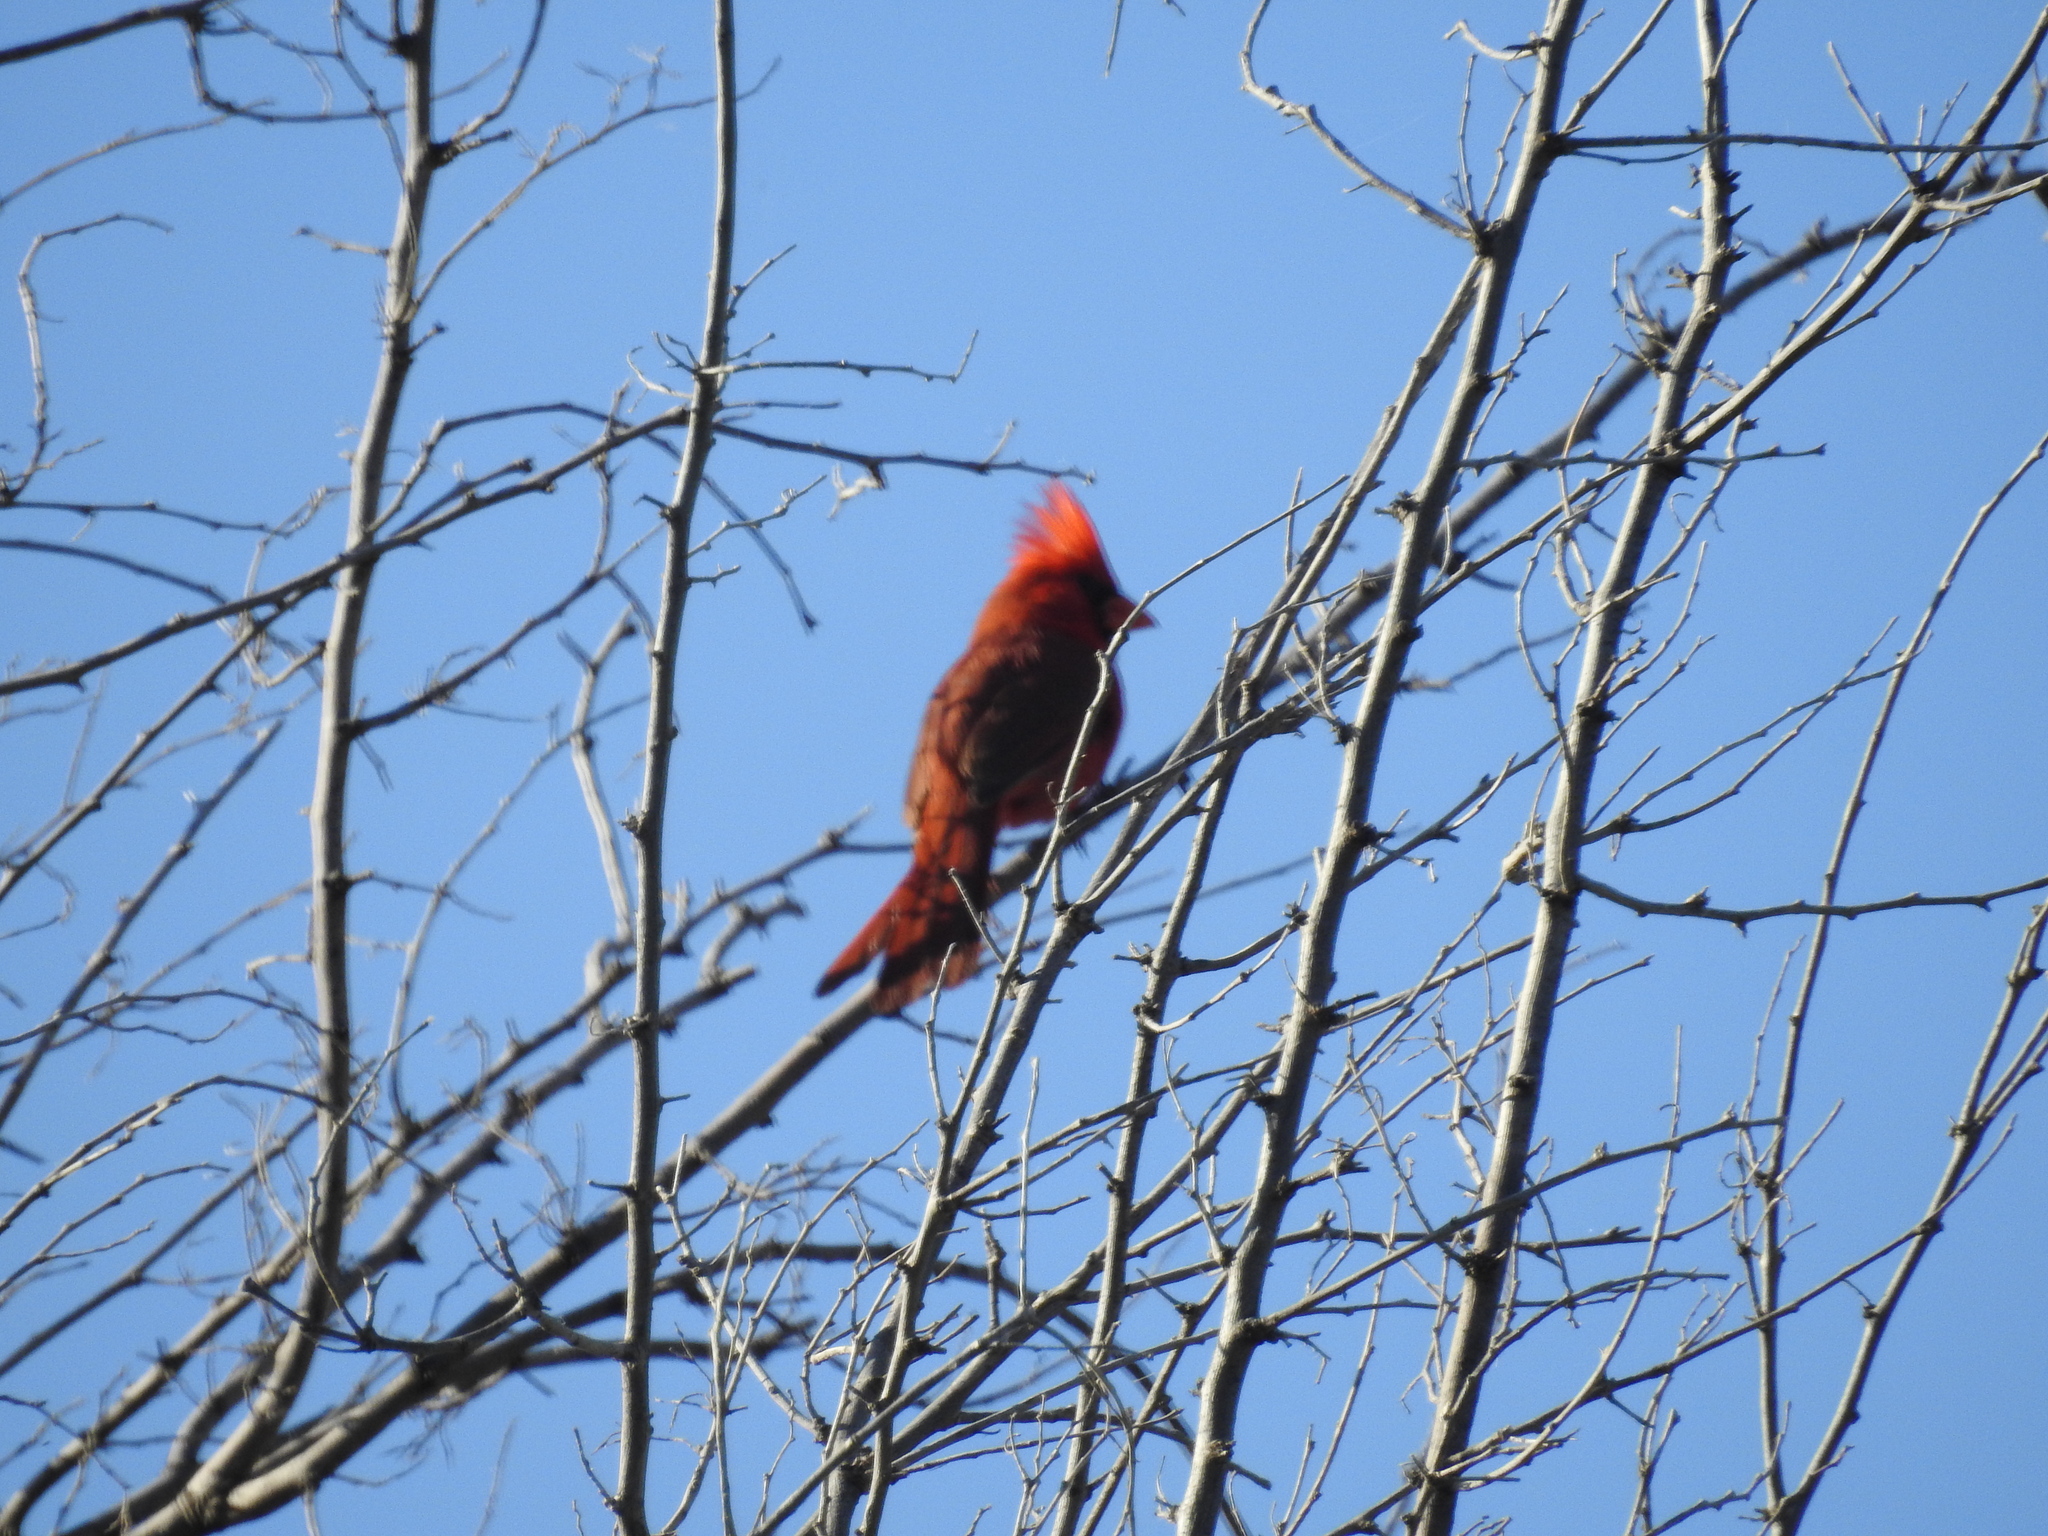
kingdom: Animalia
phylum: Chordata
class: Aves
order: Passeriformes
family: Cardinalidae
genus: Cardinalis
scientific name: Cardinalis cardinalis
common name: Northern cardinal
